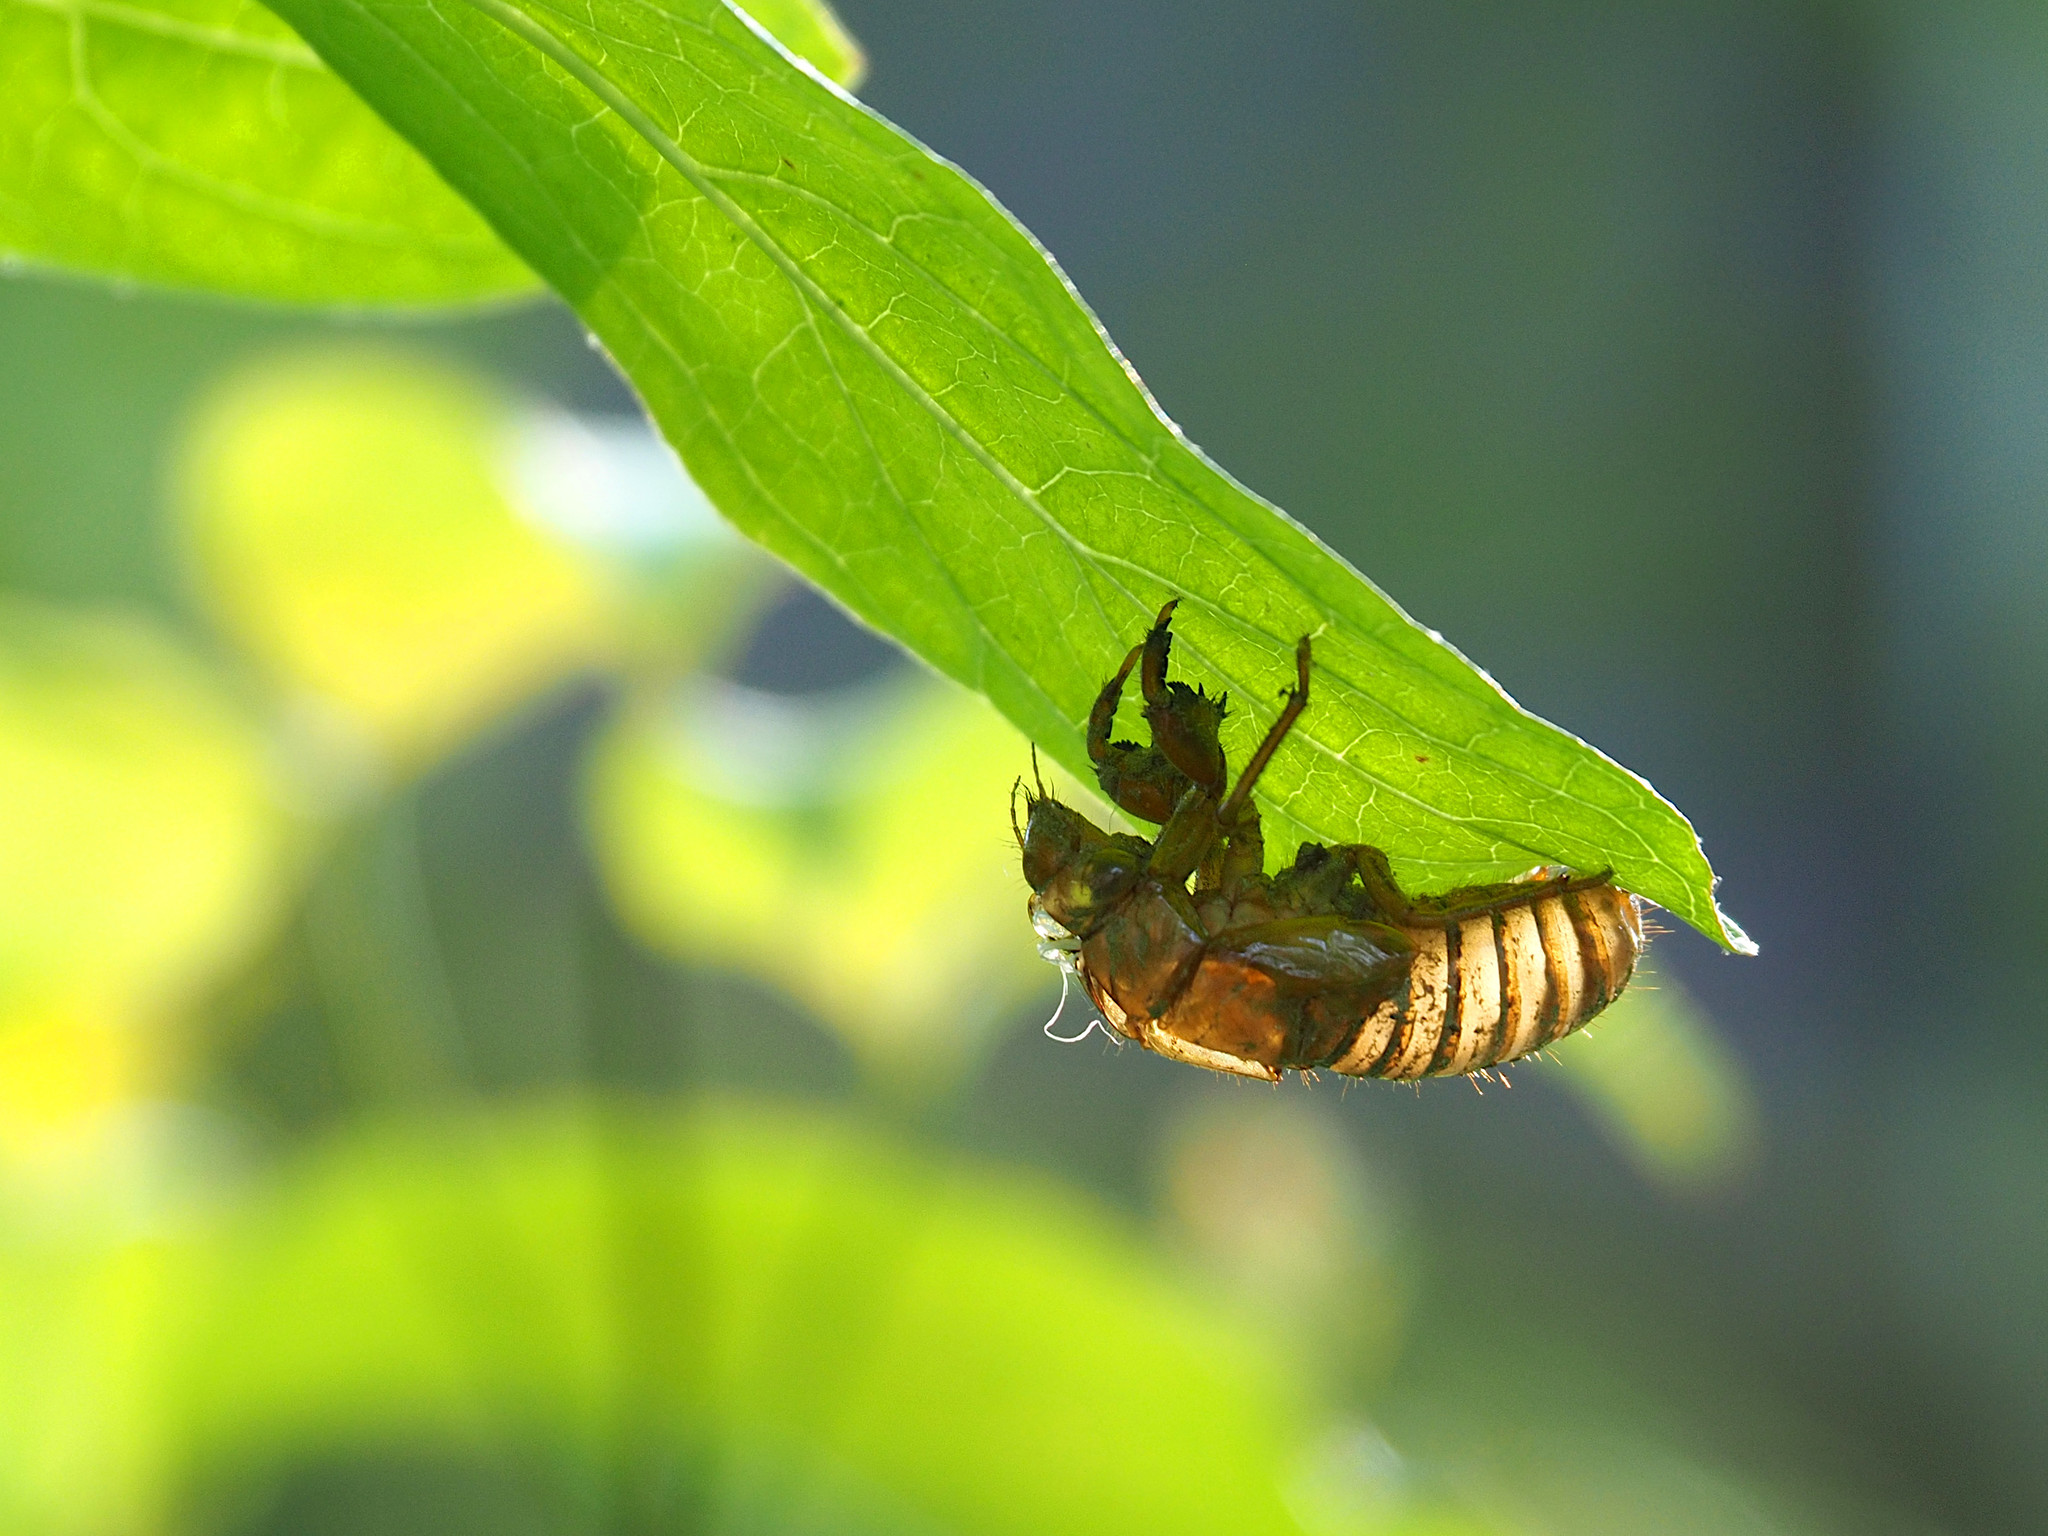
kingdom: Animalia
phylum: Arthropoda
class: Insecta
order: Hemiptera
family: Cicadidae
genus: Magicicada
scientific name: Magicicada
